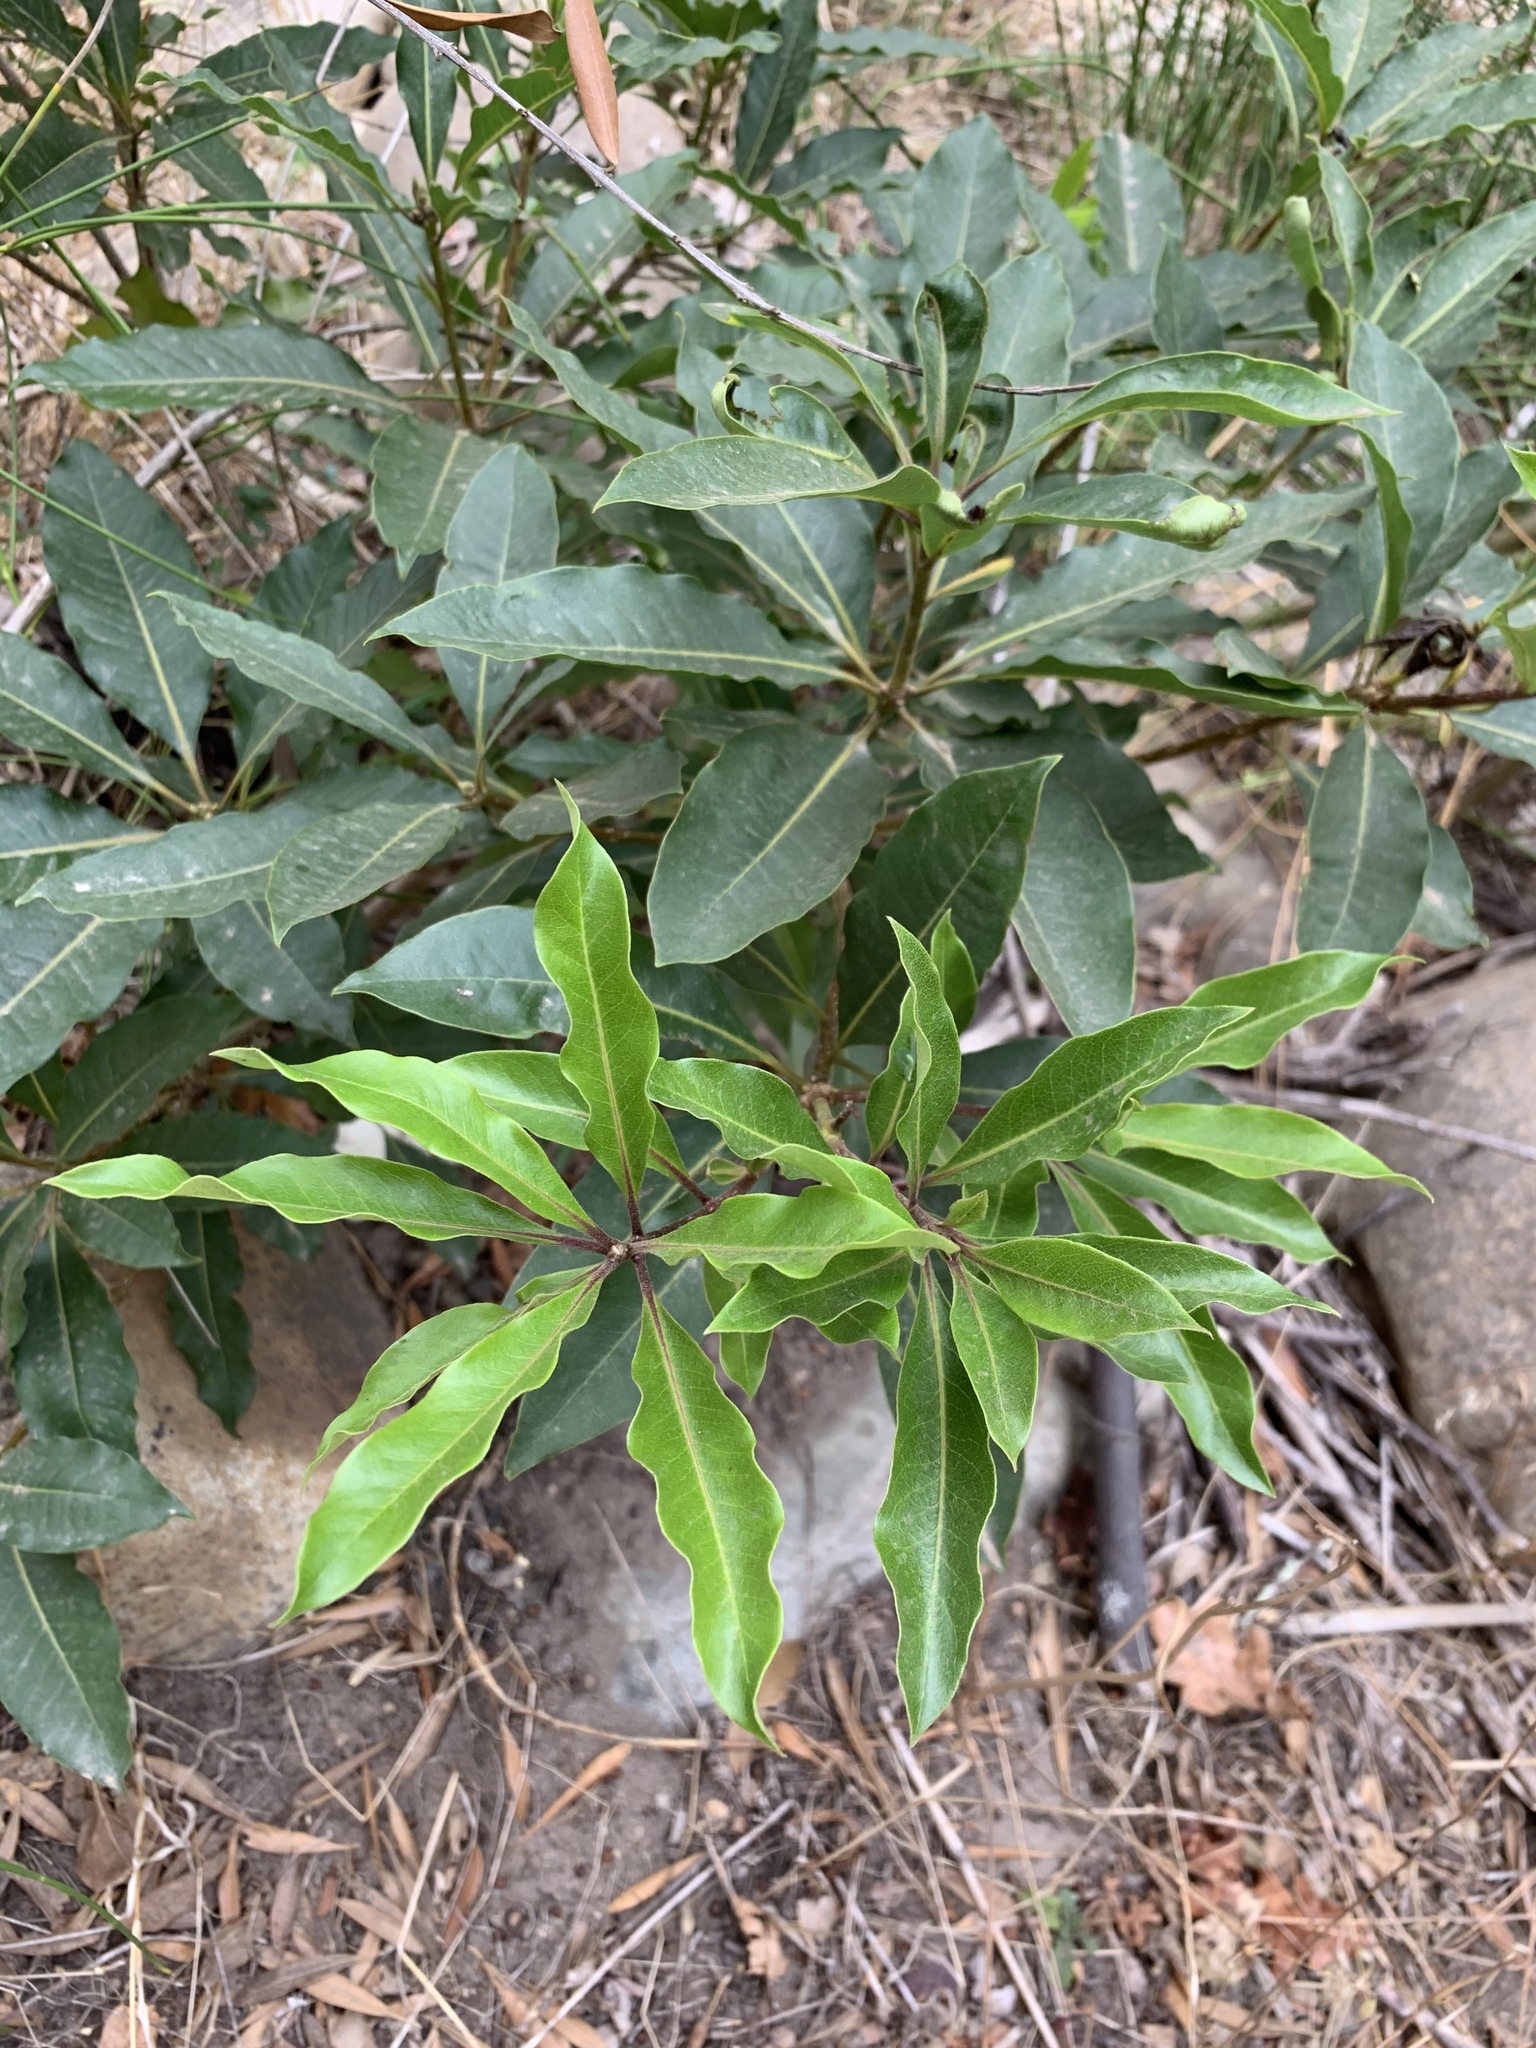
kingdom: Plantae
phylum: Tracheophyta
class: Magnoliopsida
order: Apiales
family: Pittosporaceae
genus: Pittosporum
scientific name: Pittosporum undulatum
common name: Australian cheesewood
